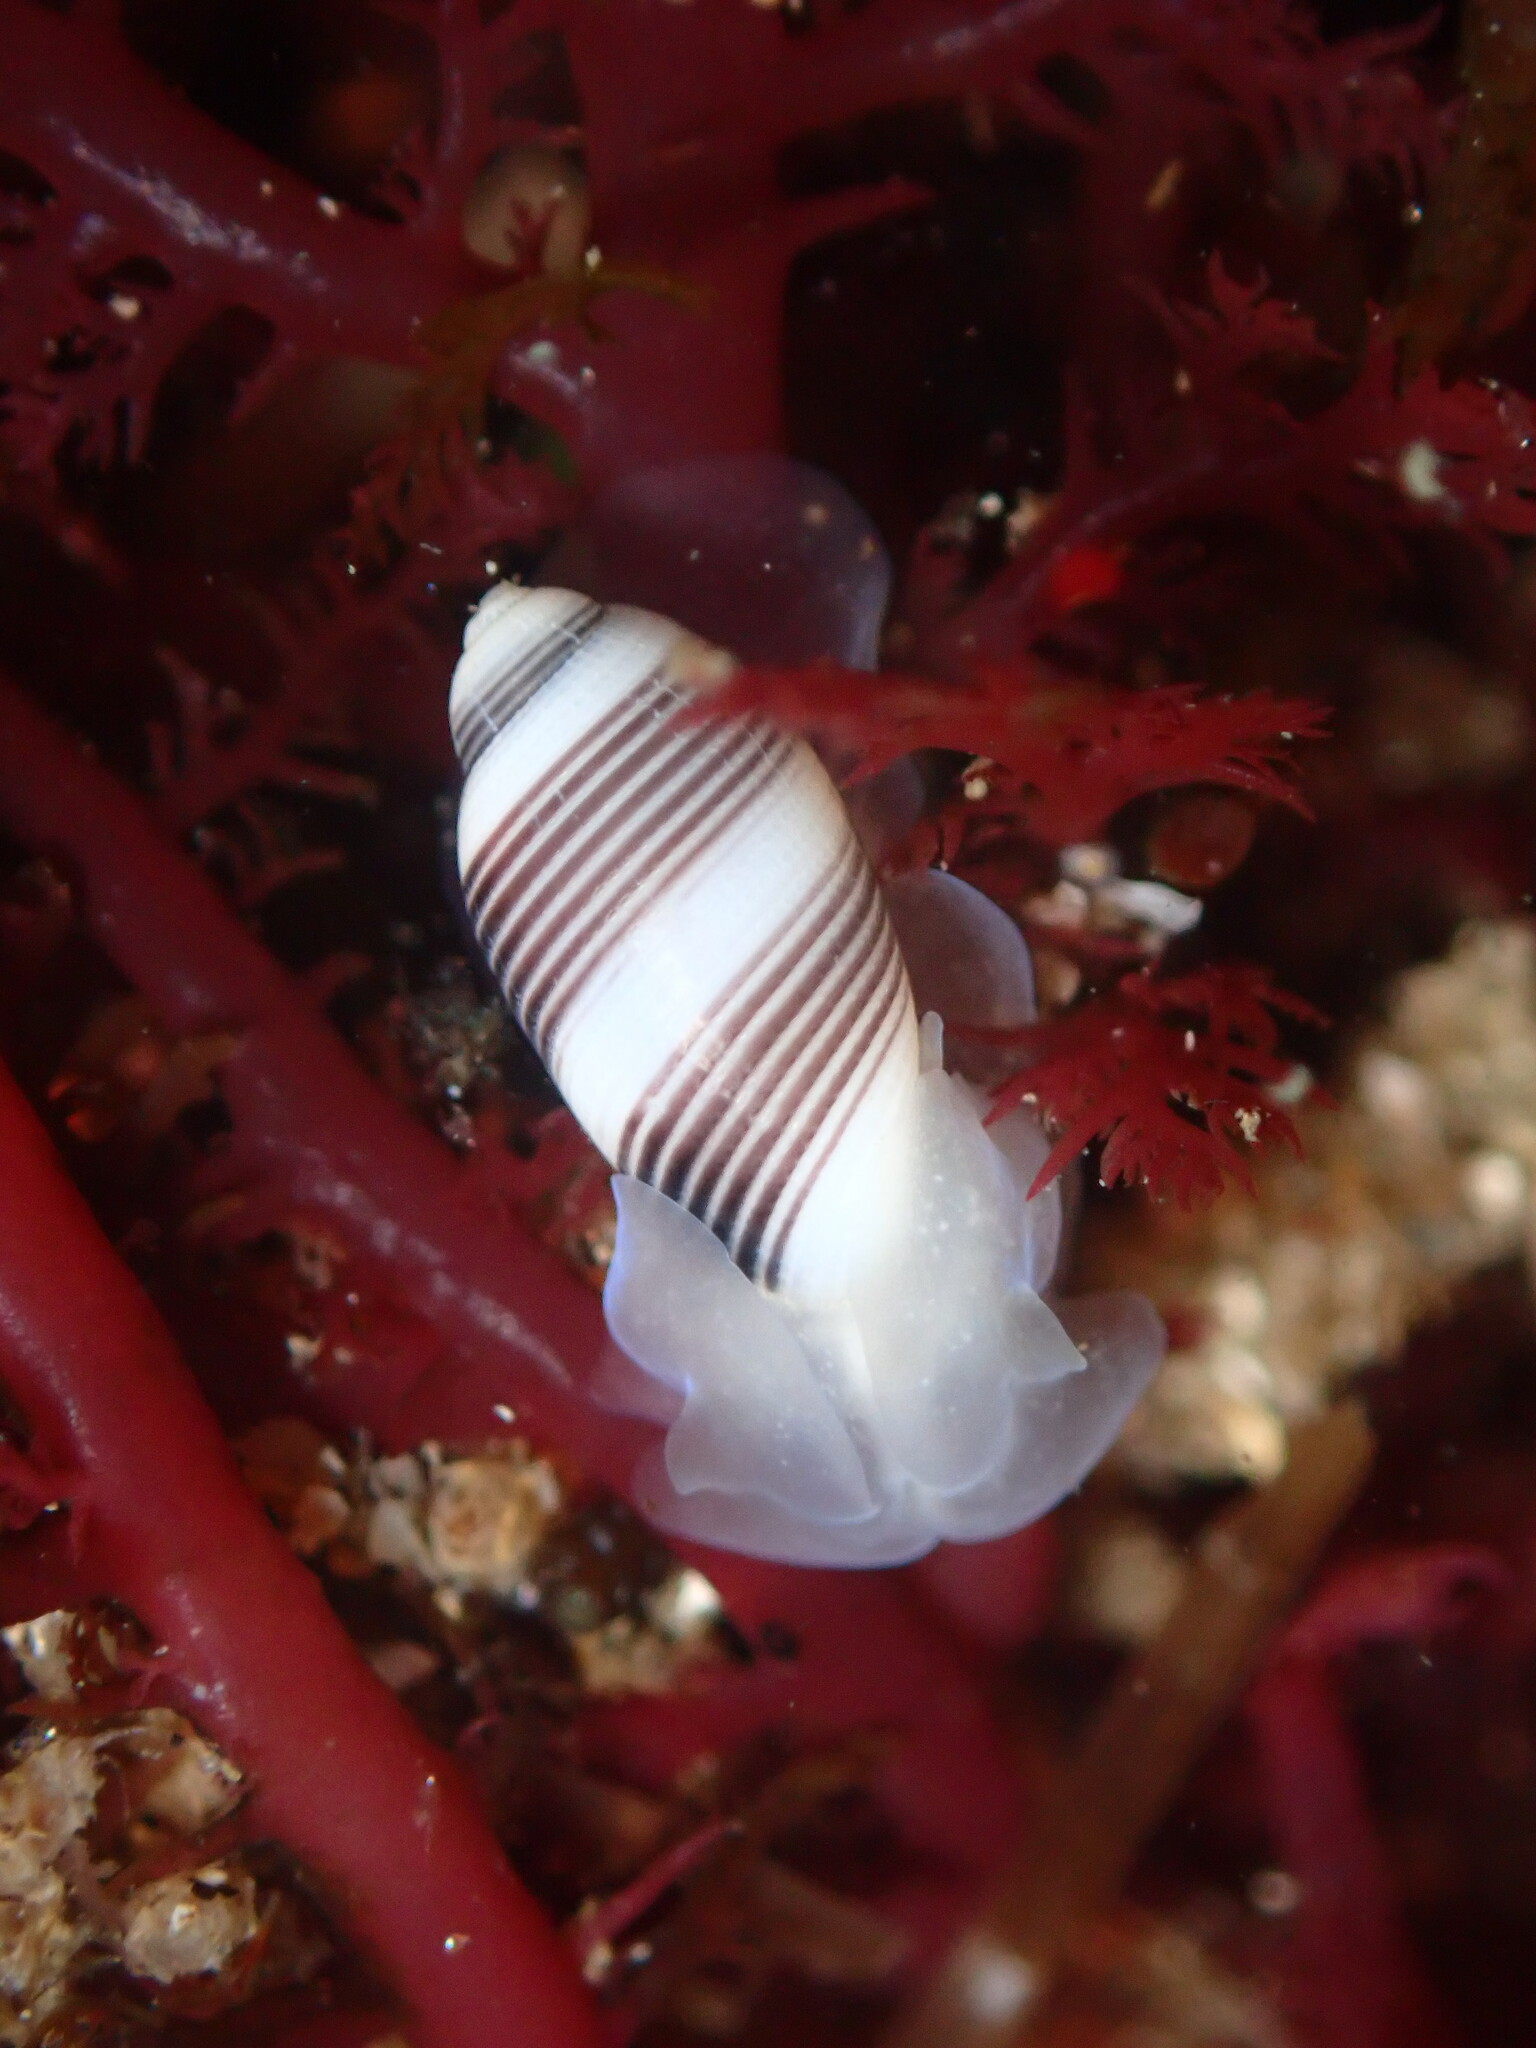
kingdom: Animalia
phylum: Mollusca
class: Gastropoda
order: Cephalaspidea
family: Acteonidae
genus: Rictaxis
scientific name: Rictaxis punctocaelatus
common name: Carpenter's acteon
